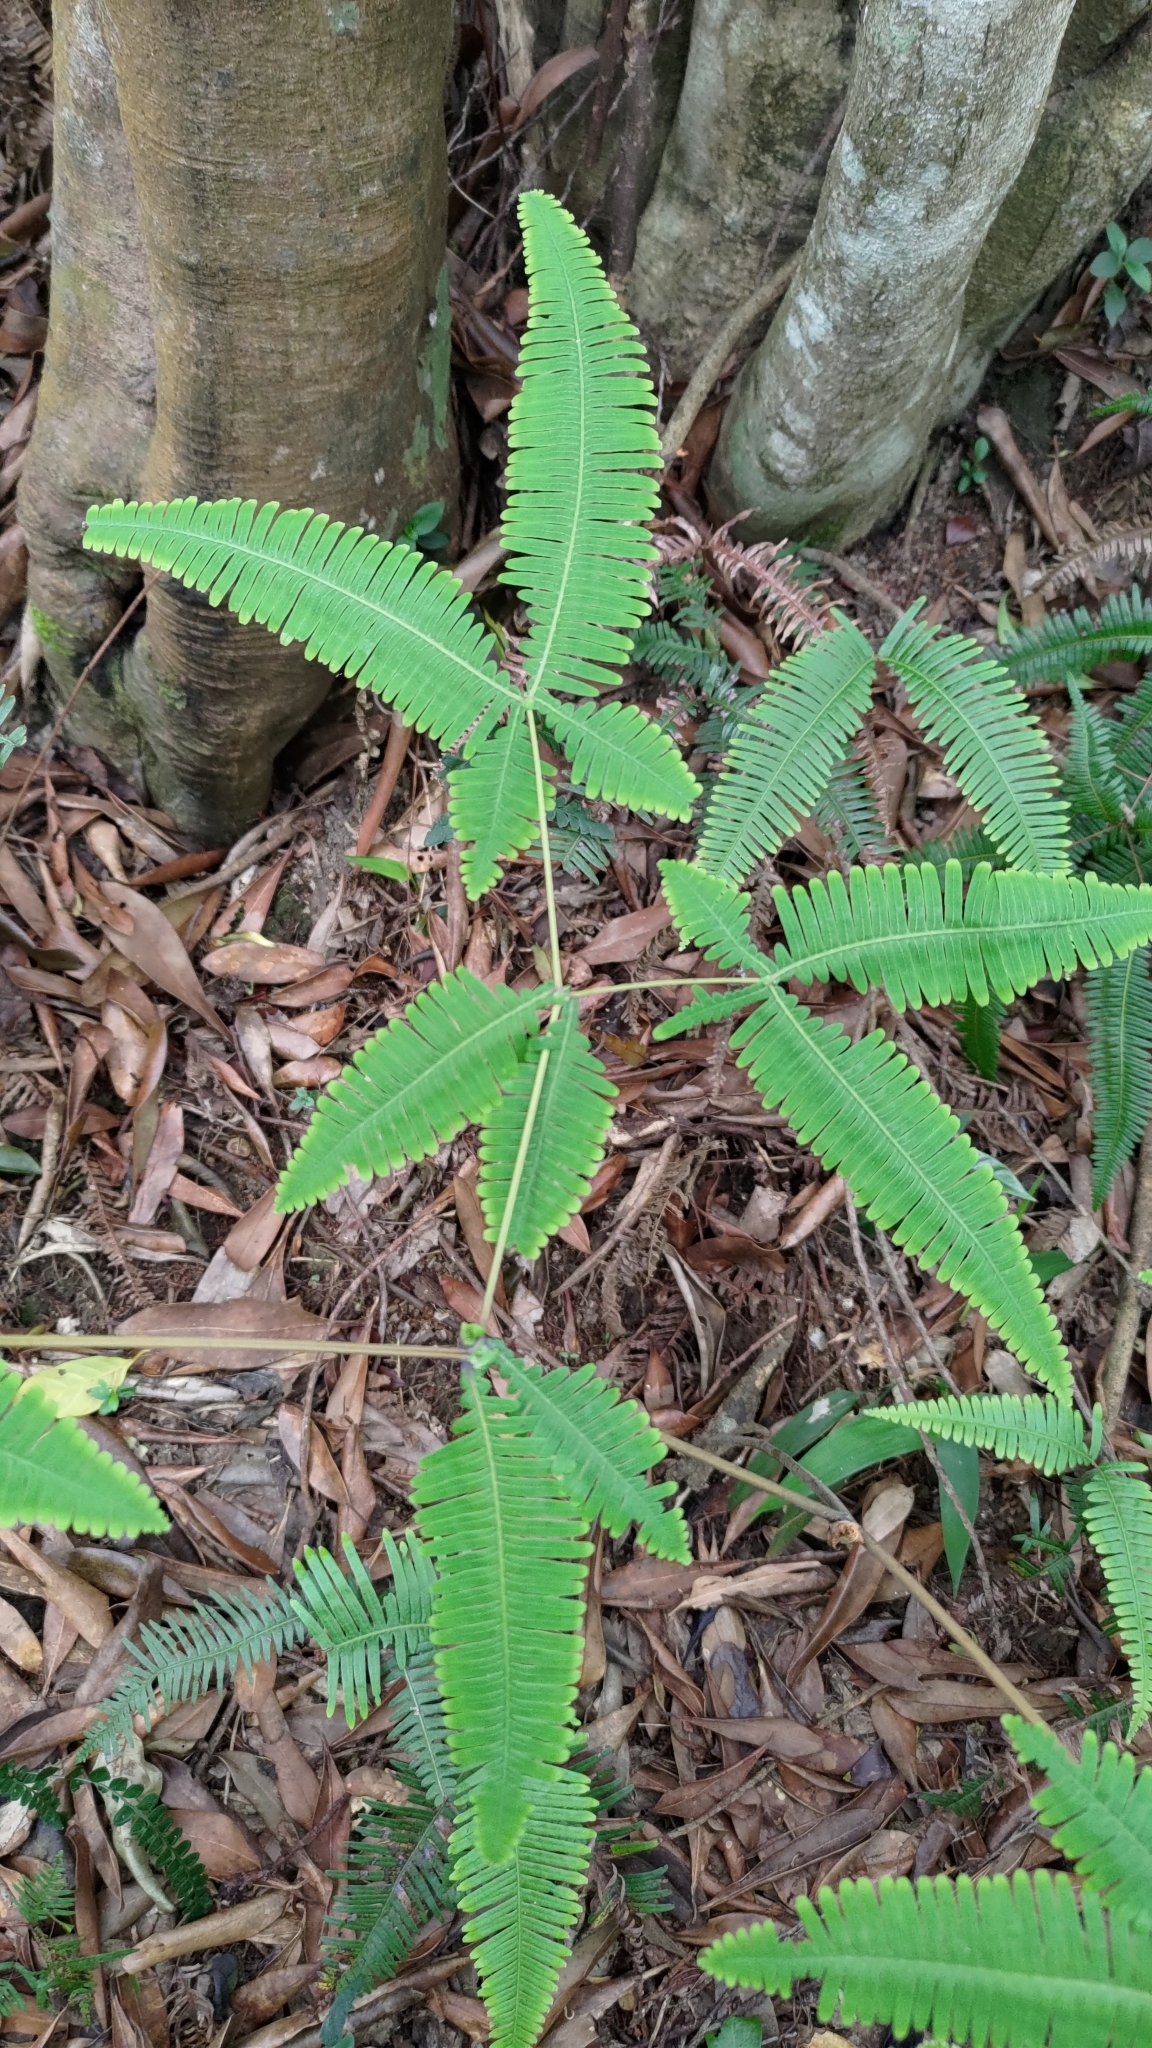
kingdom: Plantae
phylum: Tracheophyta
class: Polypodiopsida
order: Gleicheniales
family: Gleicheniaceae
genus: Dicranopteris
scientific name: Dicranopteris tetraphylla
